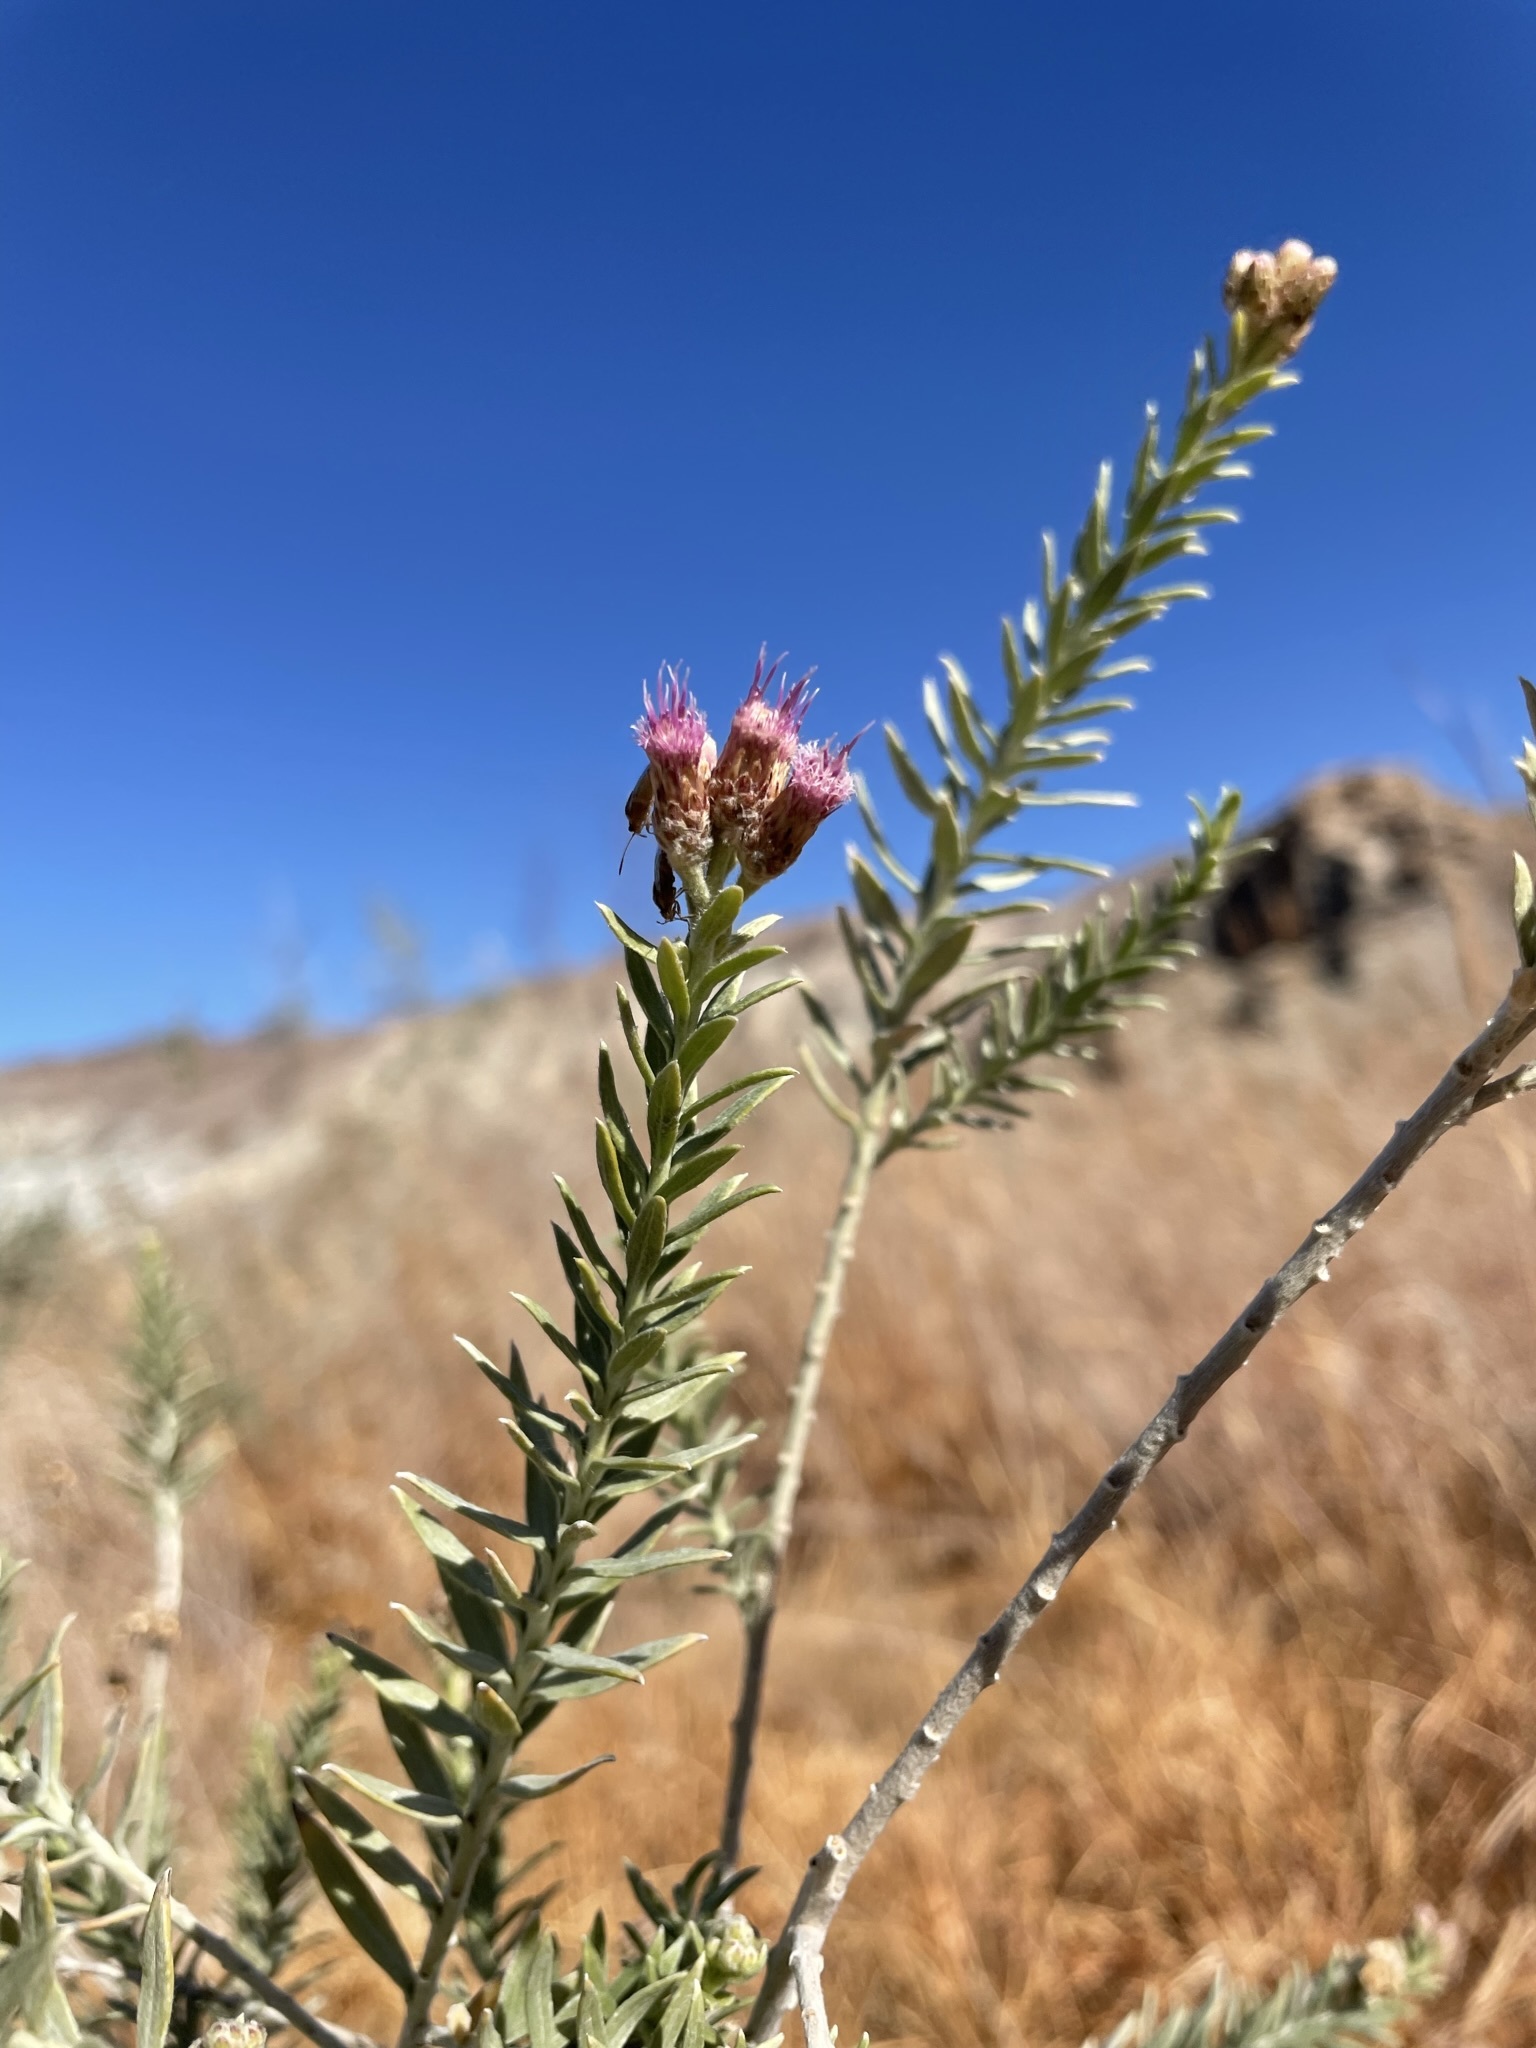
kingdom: Plantae
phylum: Tracheophyta
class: Magnoliopsida
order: Asterales
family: Asteraceae
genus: Pluchea
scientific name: Pluchea sericea
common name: Arrow-weed
